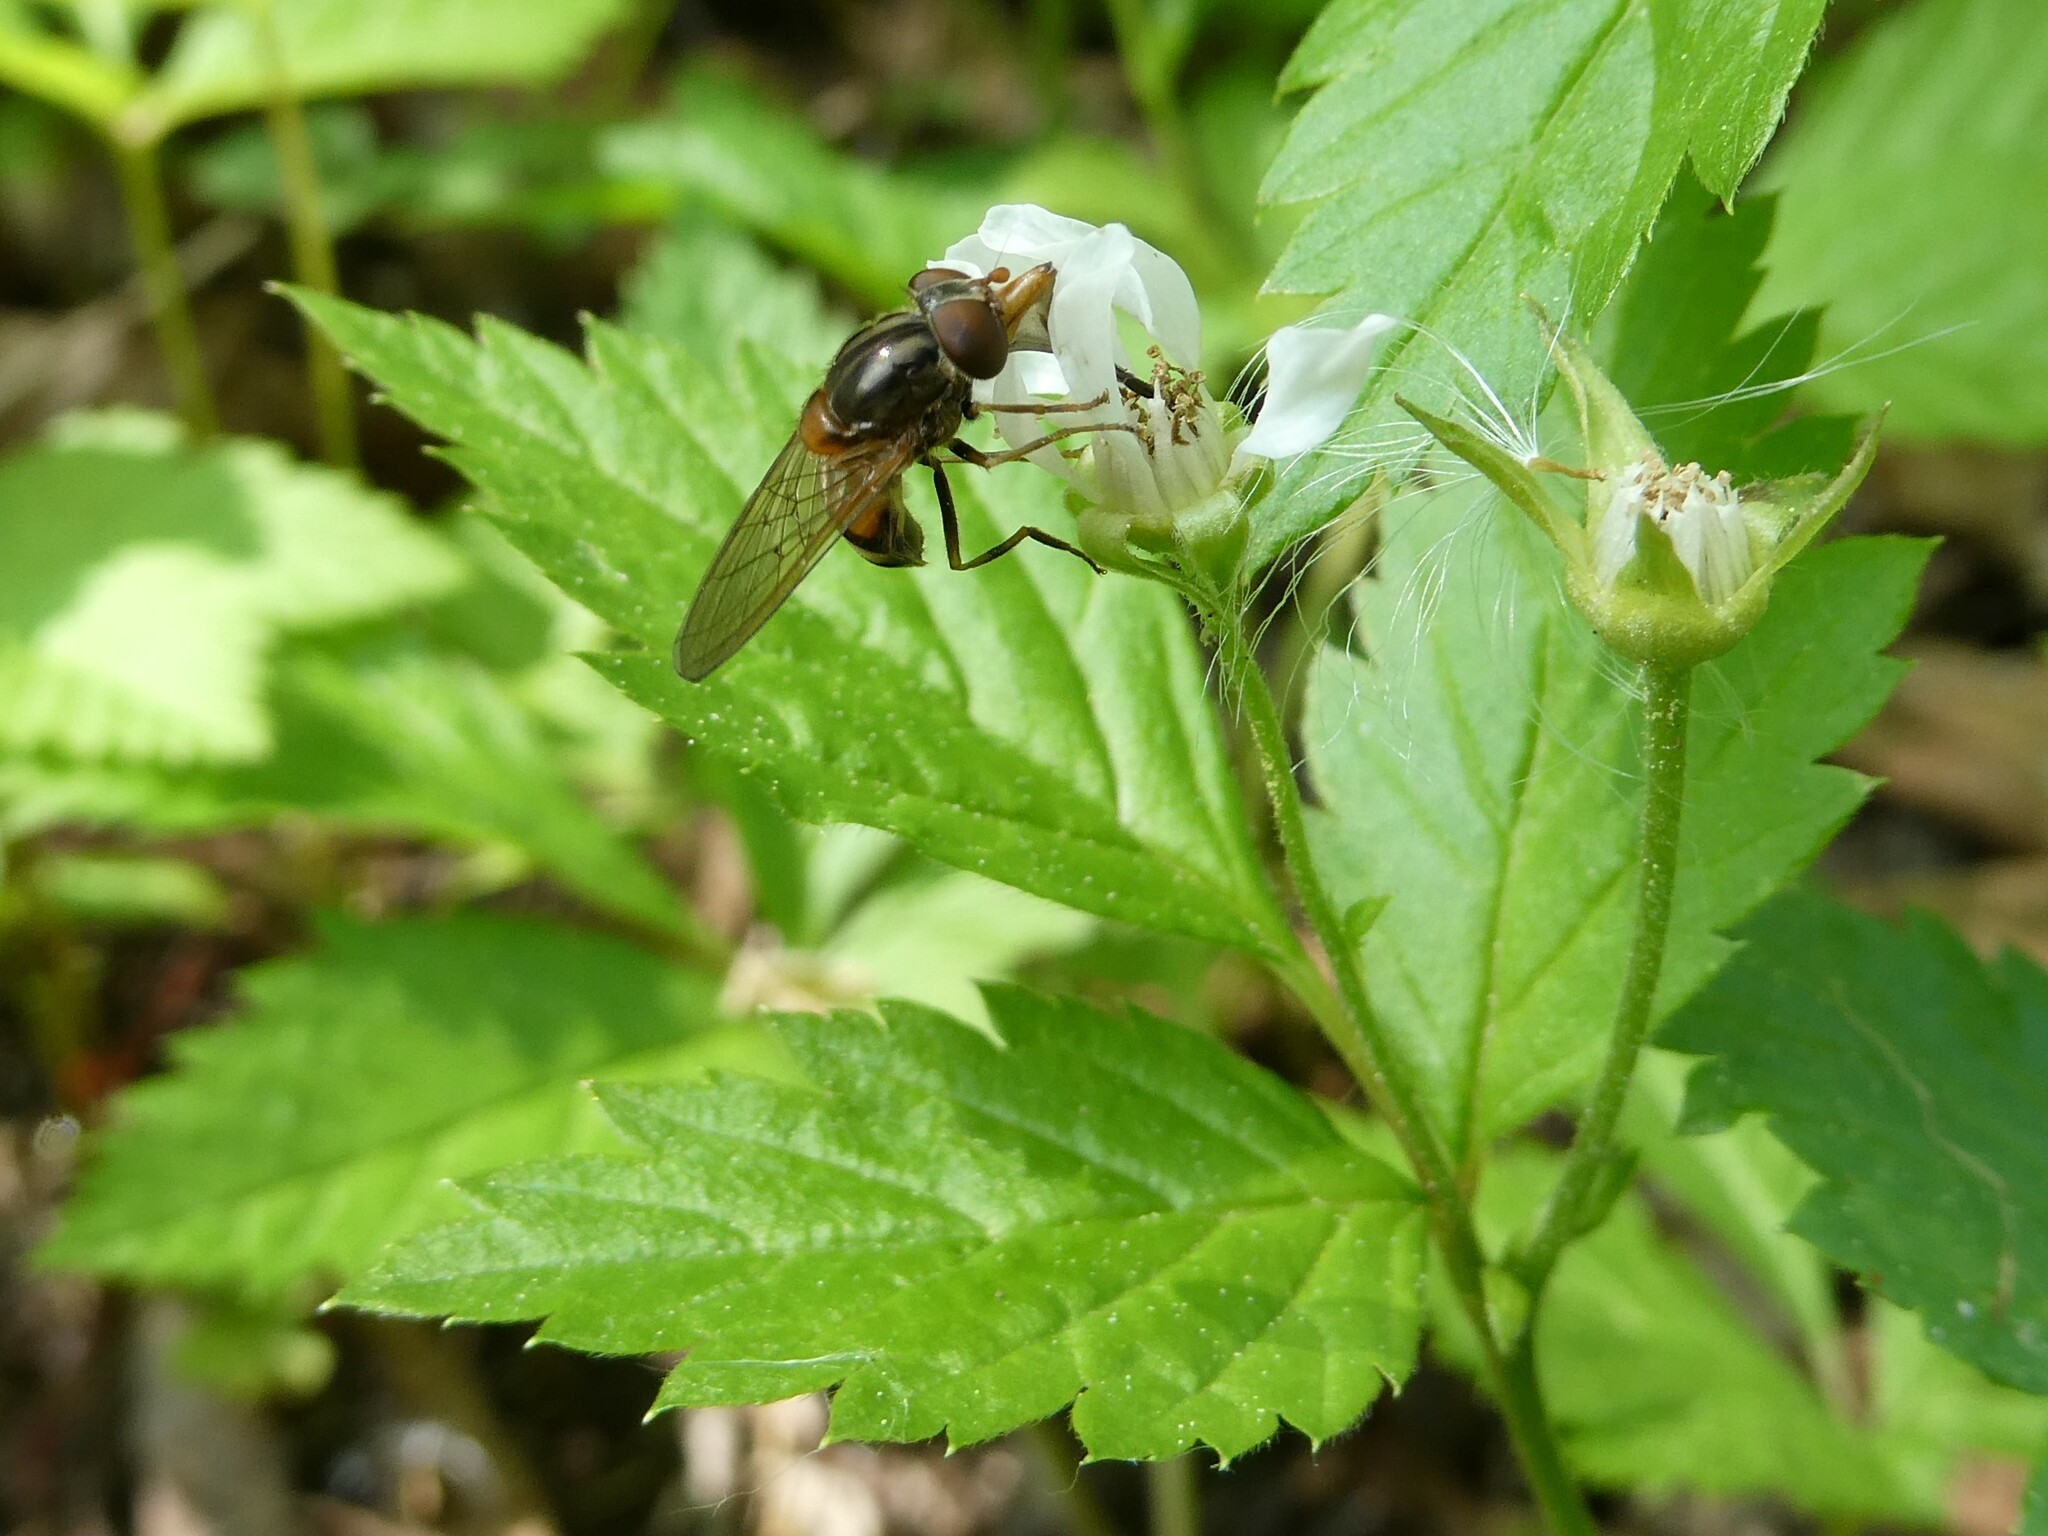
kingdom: Animalia
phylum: Arthropoda
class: Insecta
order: Diptera
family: Syrphidae
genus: Rhingia
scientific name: Rhingia nasica
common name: American snout fly
